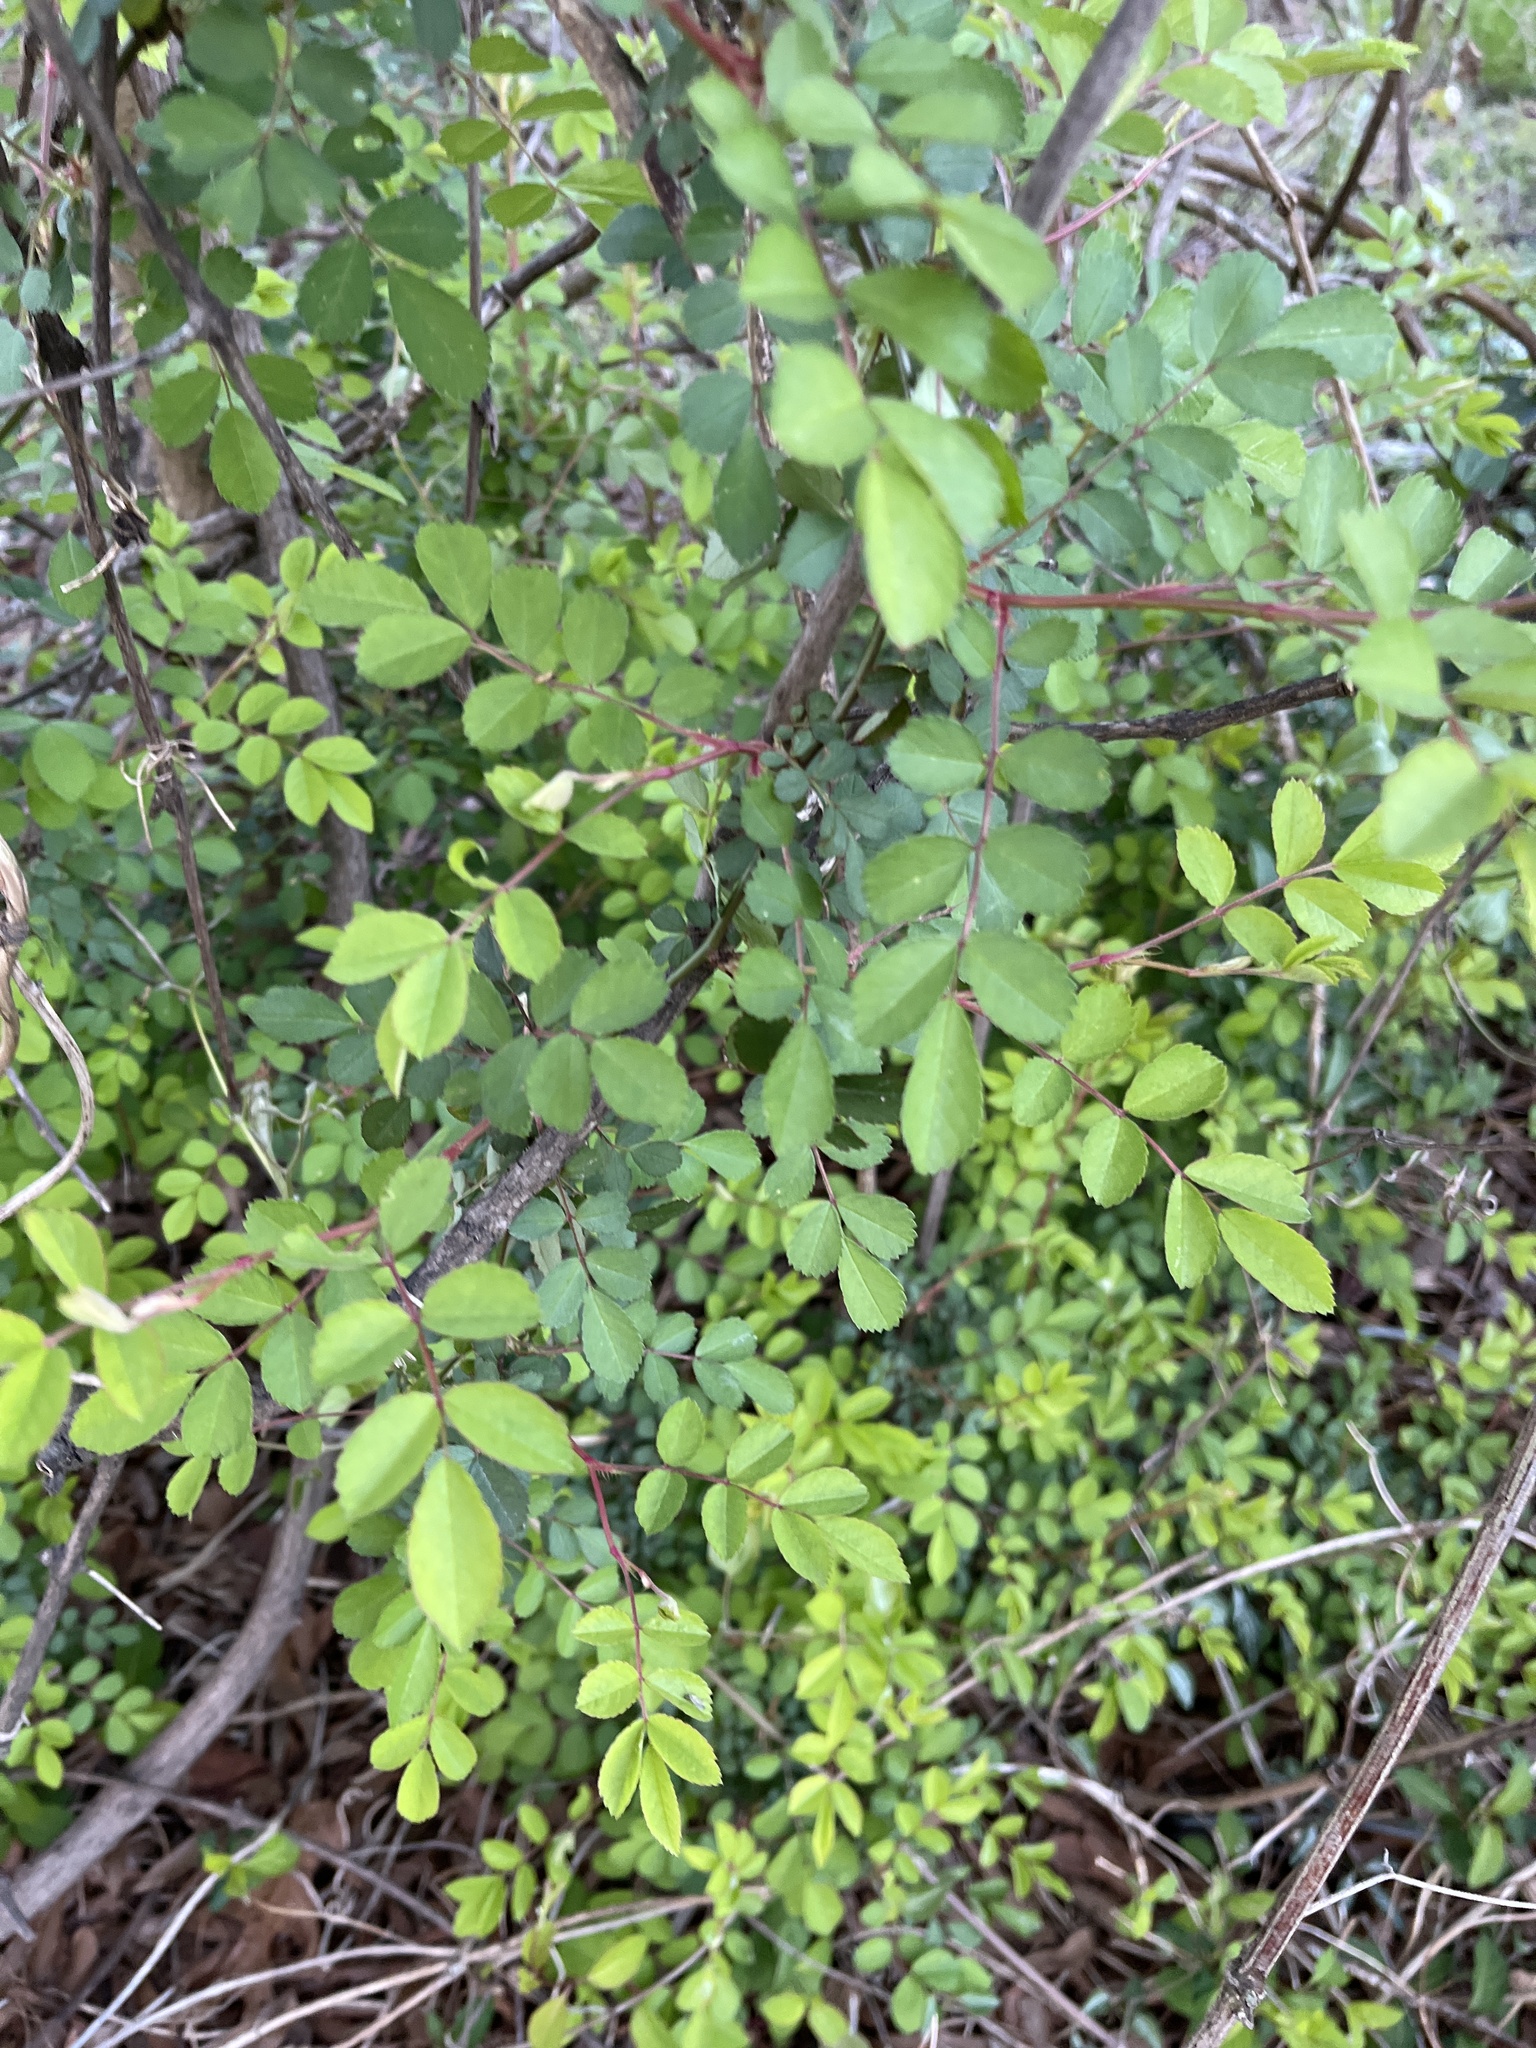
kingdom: Plantae
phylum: Tracheophyta
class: Magnoliopsida
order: Rosales
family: Rosaceae
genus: Rosa
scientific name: Rosa multiflora
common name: Multiflora rose
